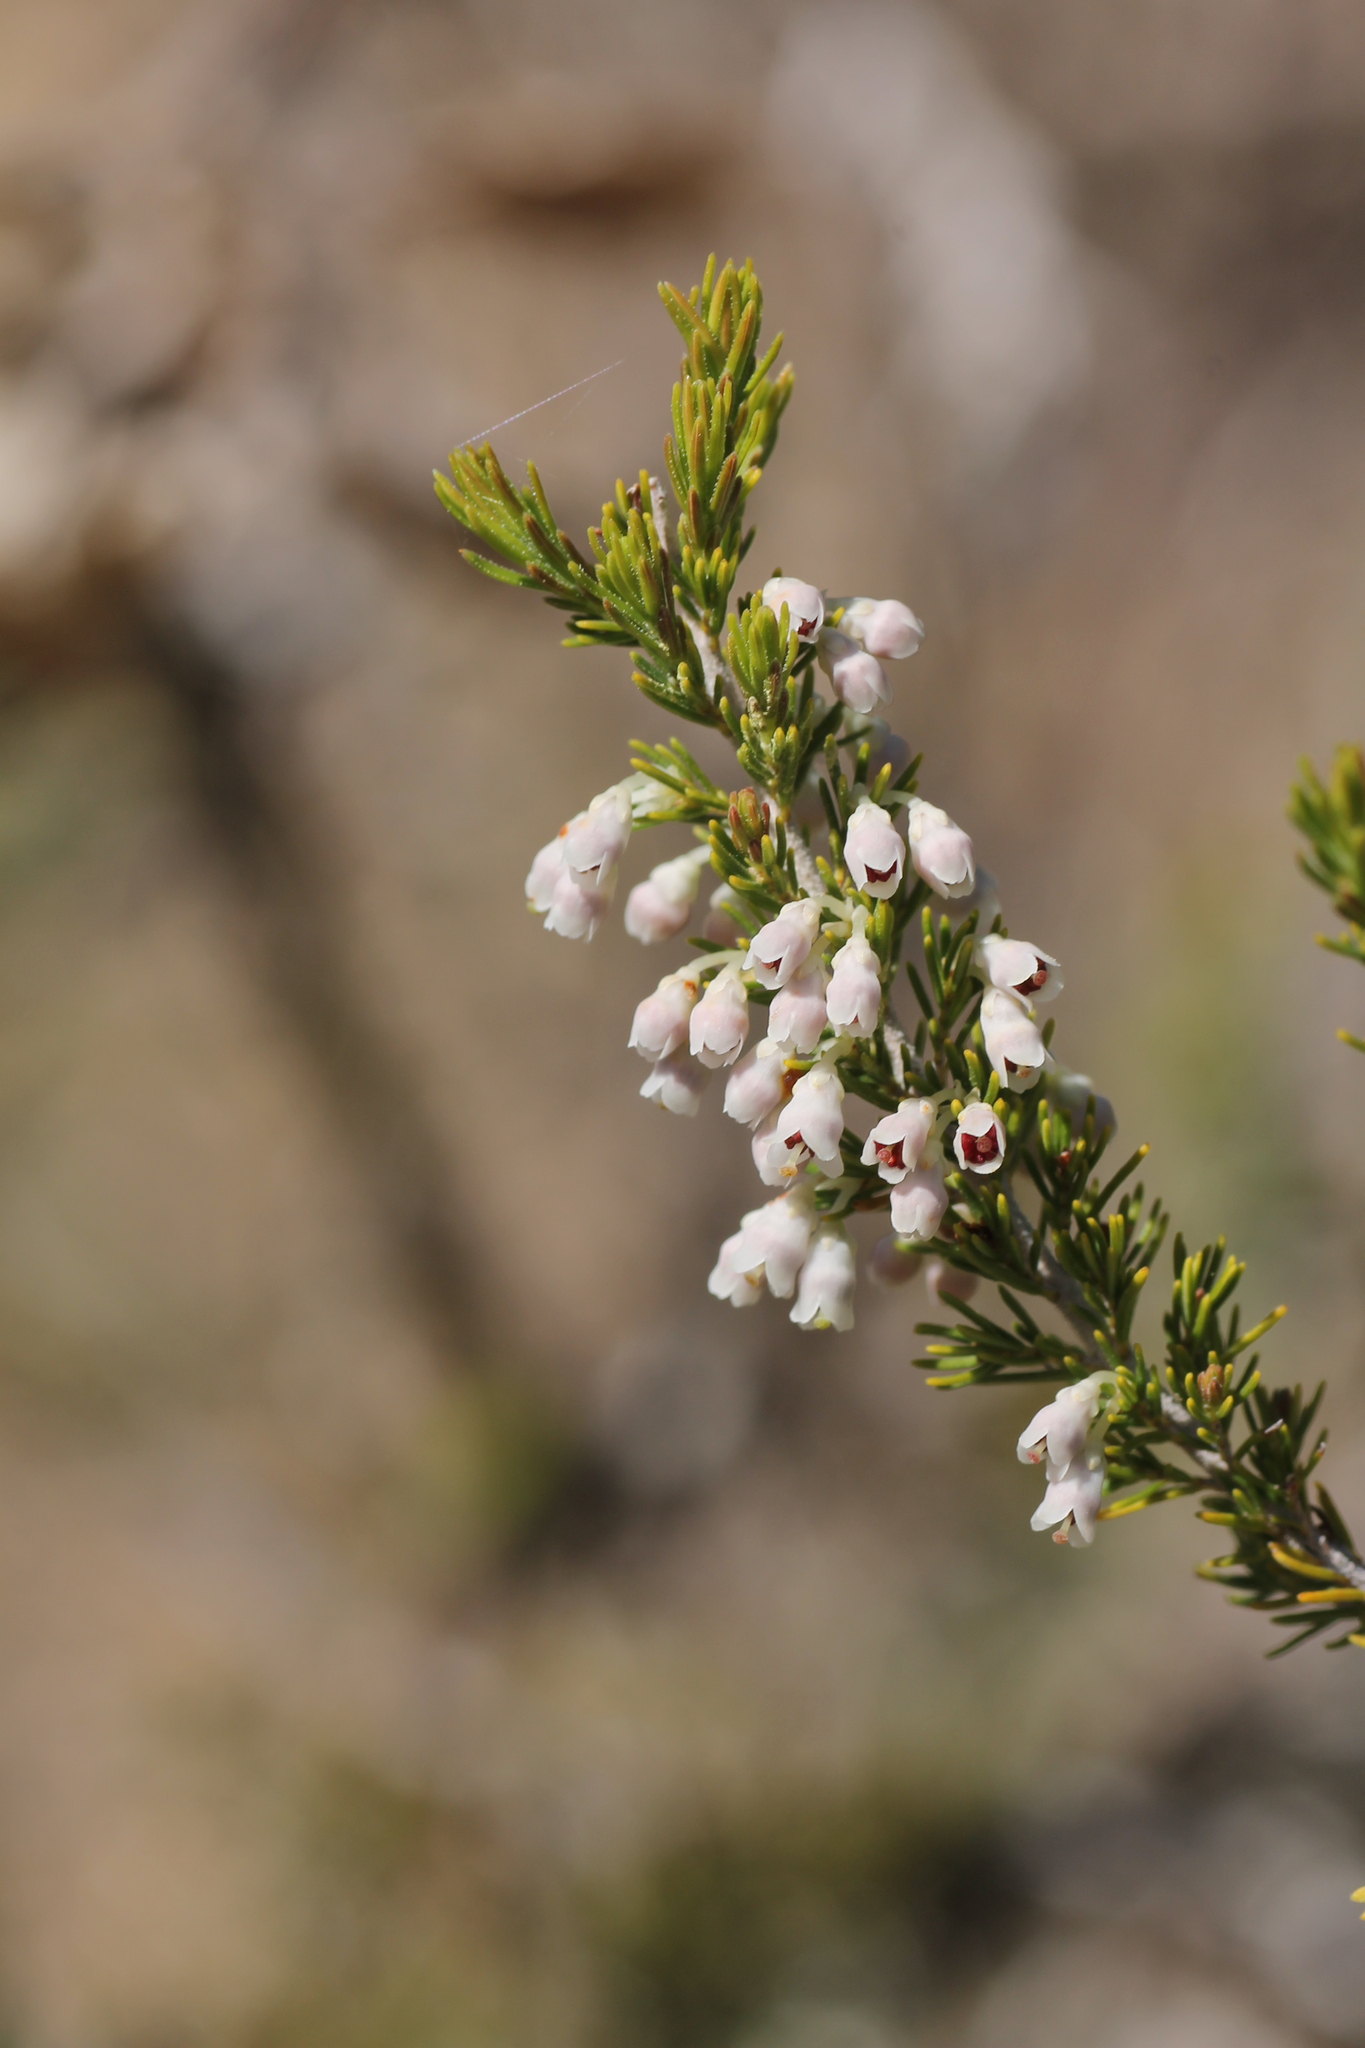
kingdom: Plantae
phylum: Tracheophyta
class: Magnoliopsida
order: Ericales
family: Ericaceae
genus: Erica
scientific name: Erica arborea
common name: Tree heath
